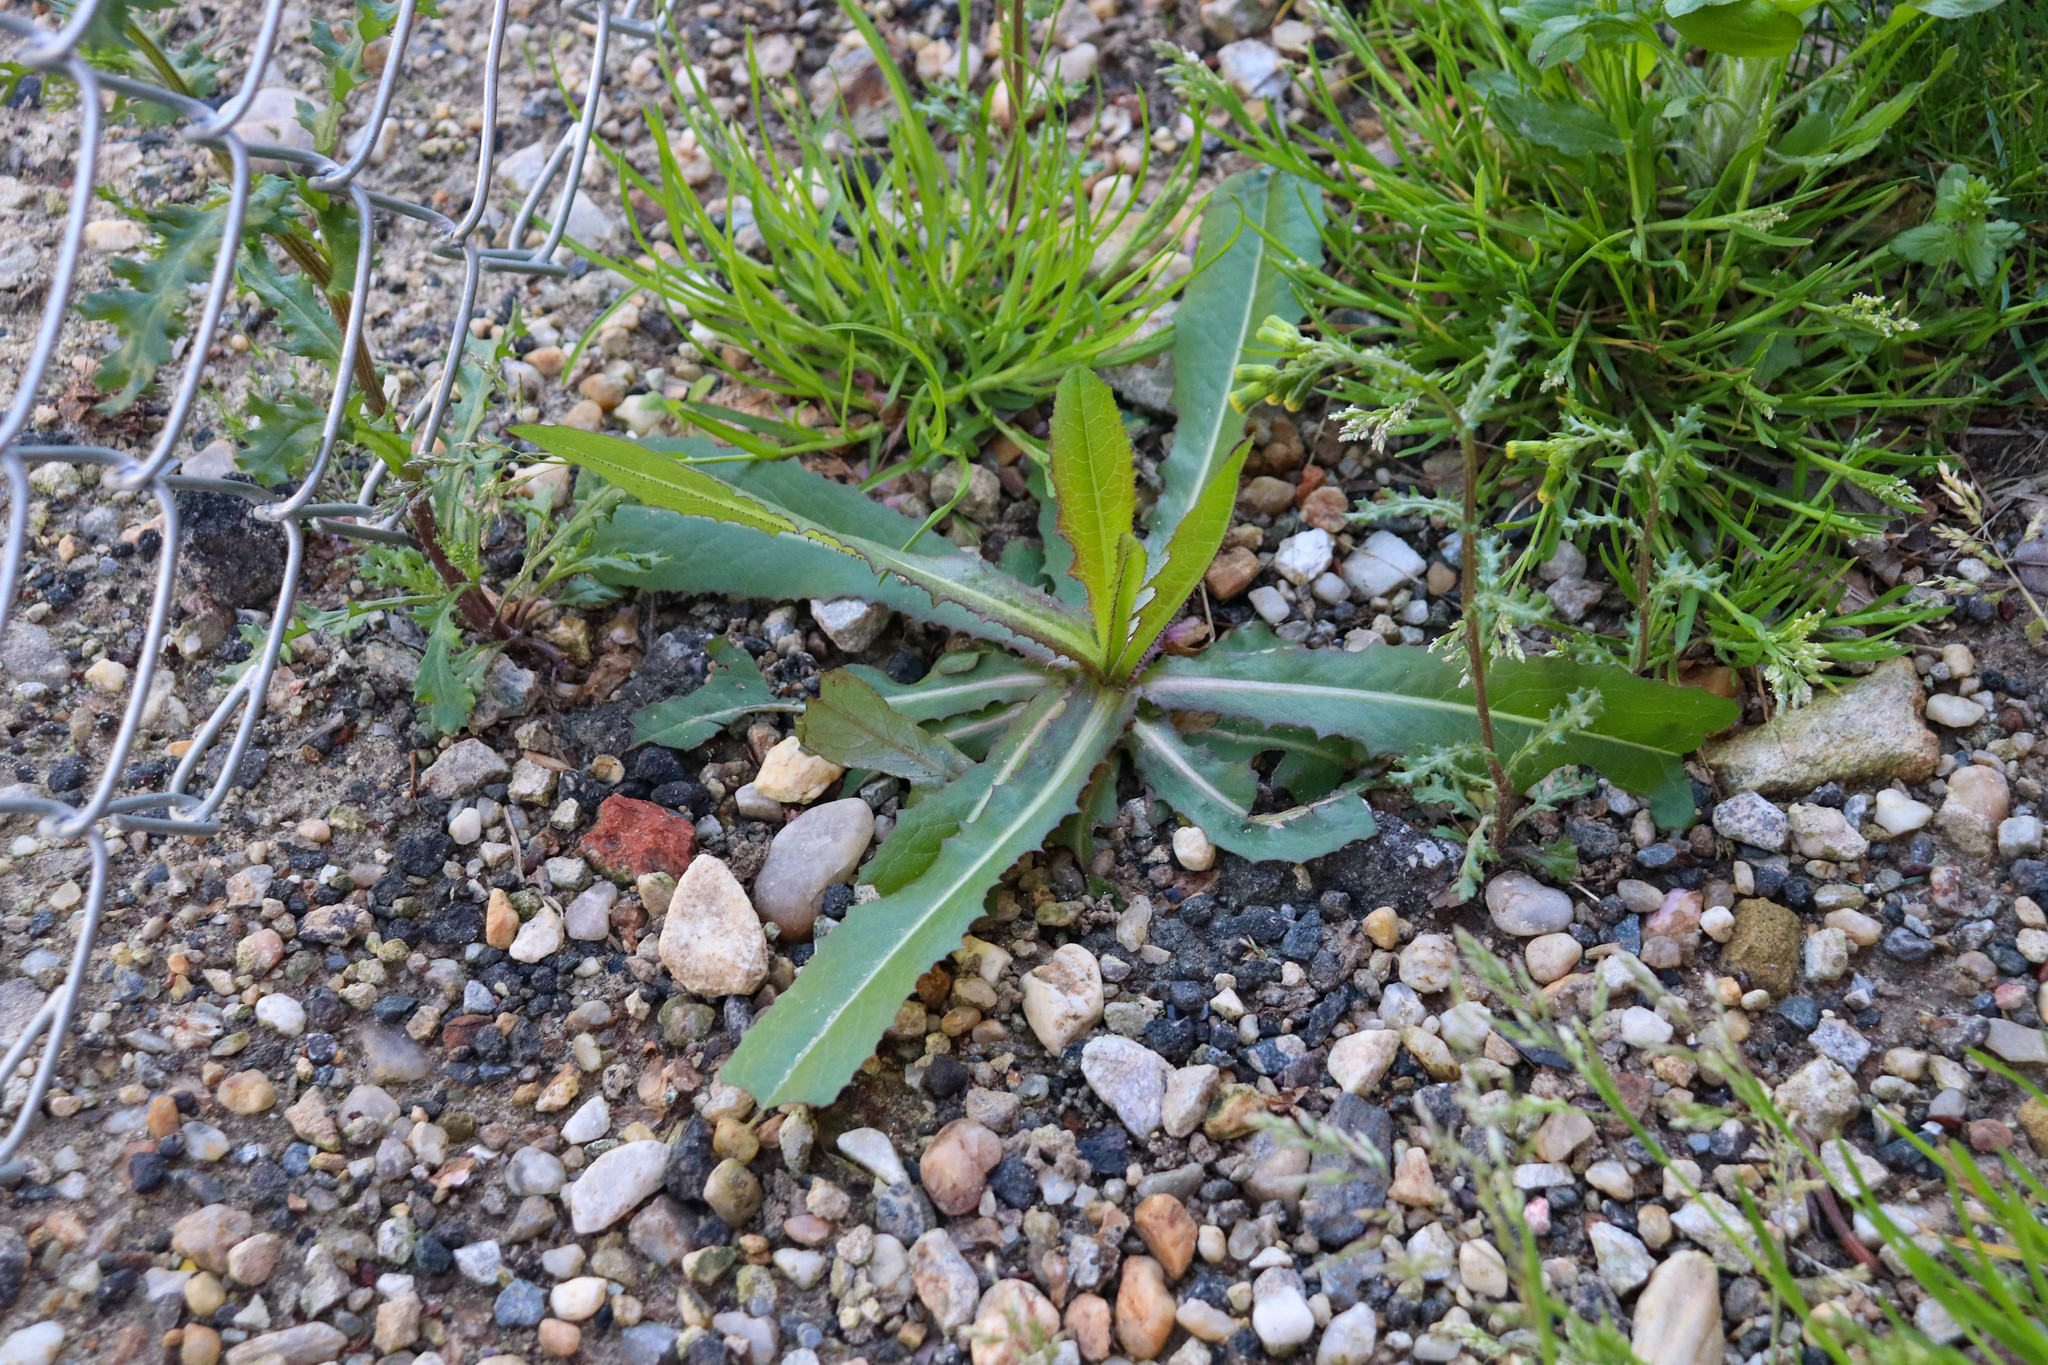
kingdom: Plantae
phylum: Tracheophyta
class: Magnoliopsida
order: Asterales
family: Asteraceae
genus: Lactuca
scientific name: Lactuca serriola
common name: Prickly lettuce
